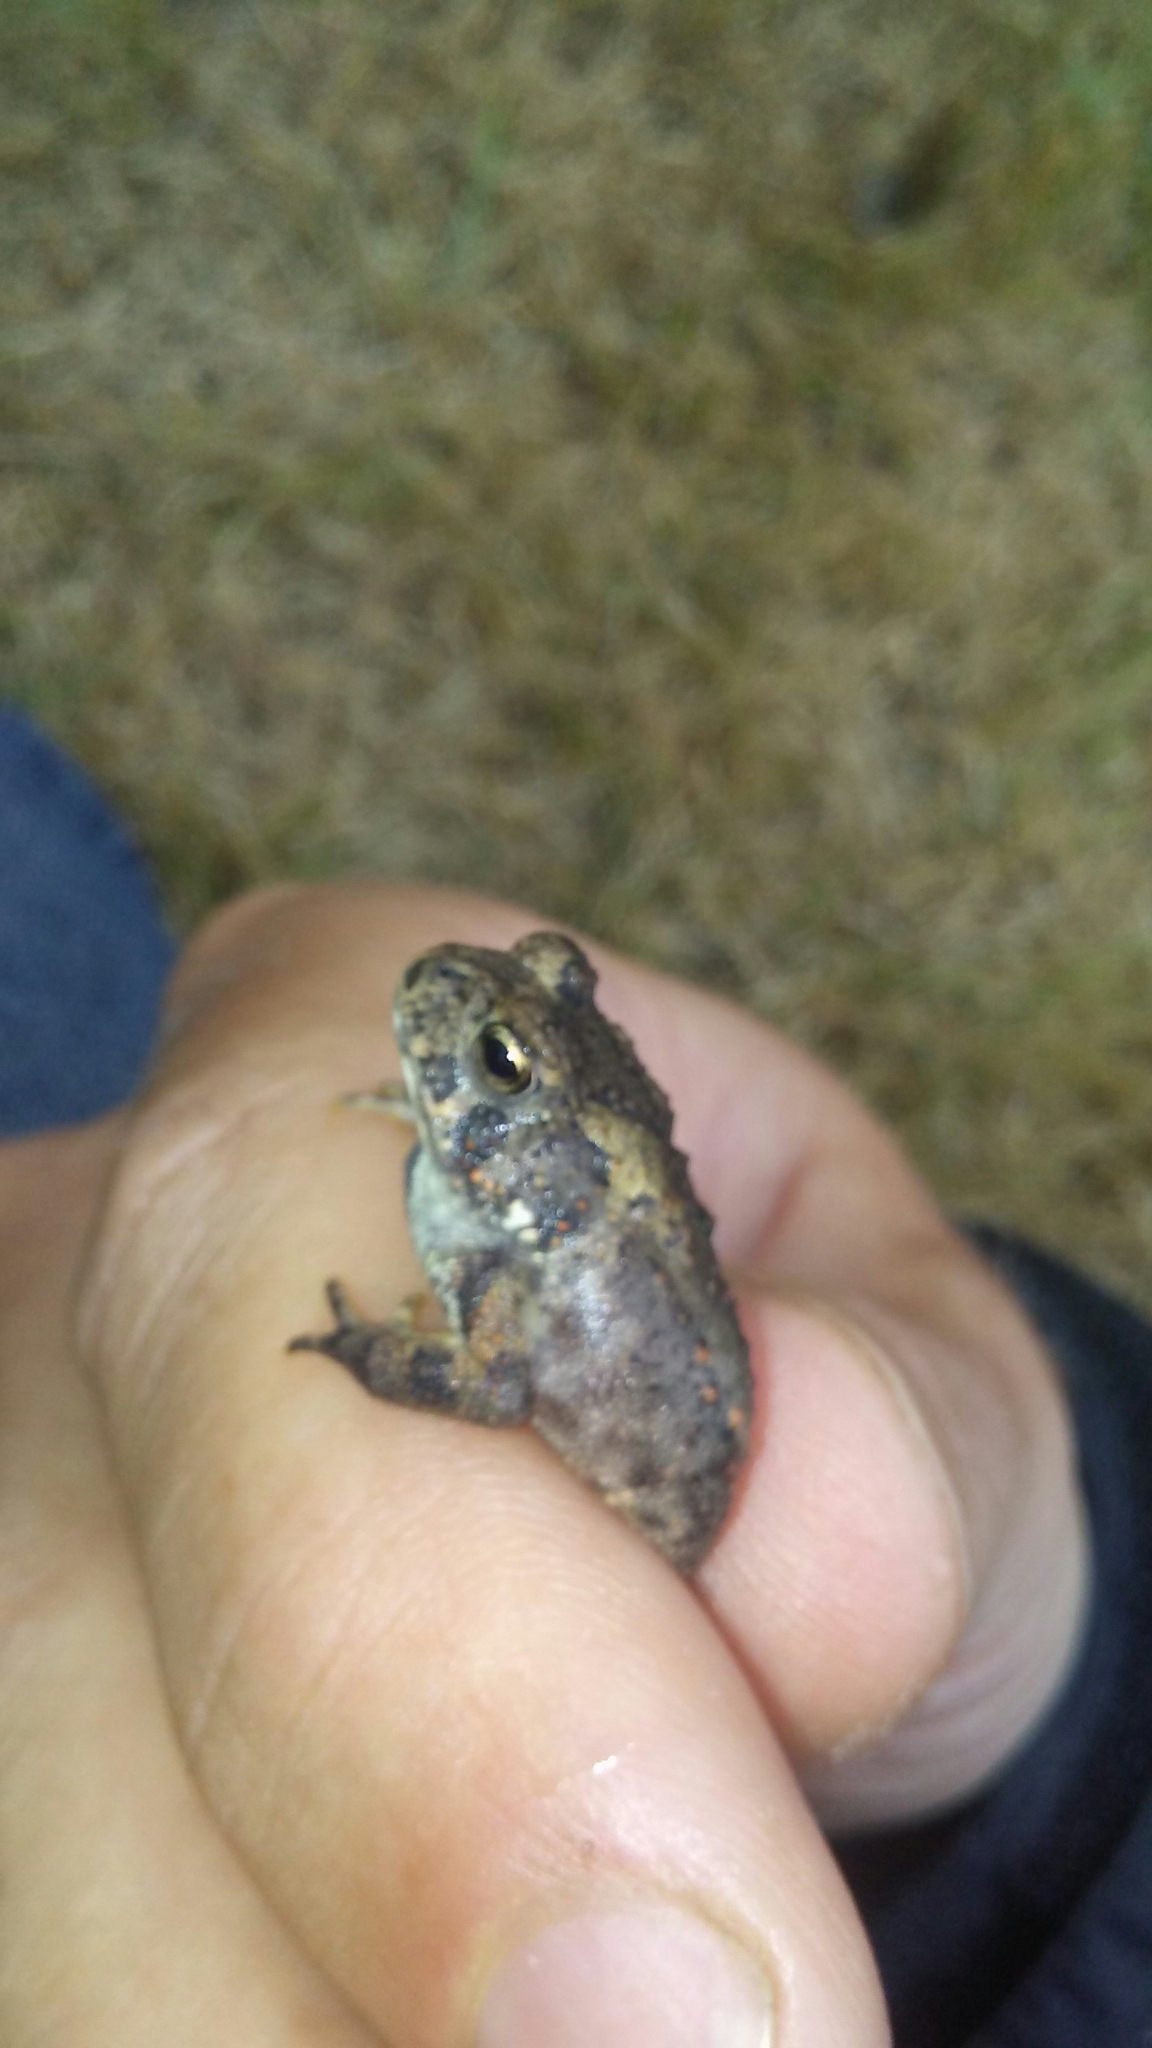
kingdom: Animalia
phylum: Chordata
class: Amphibia
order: Anura
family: Bufonidae
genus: Anaxyrus
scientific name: Anaxyrus americanus
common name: American toad
